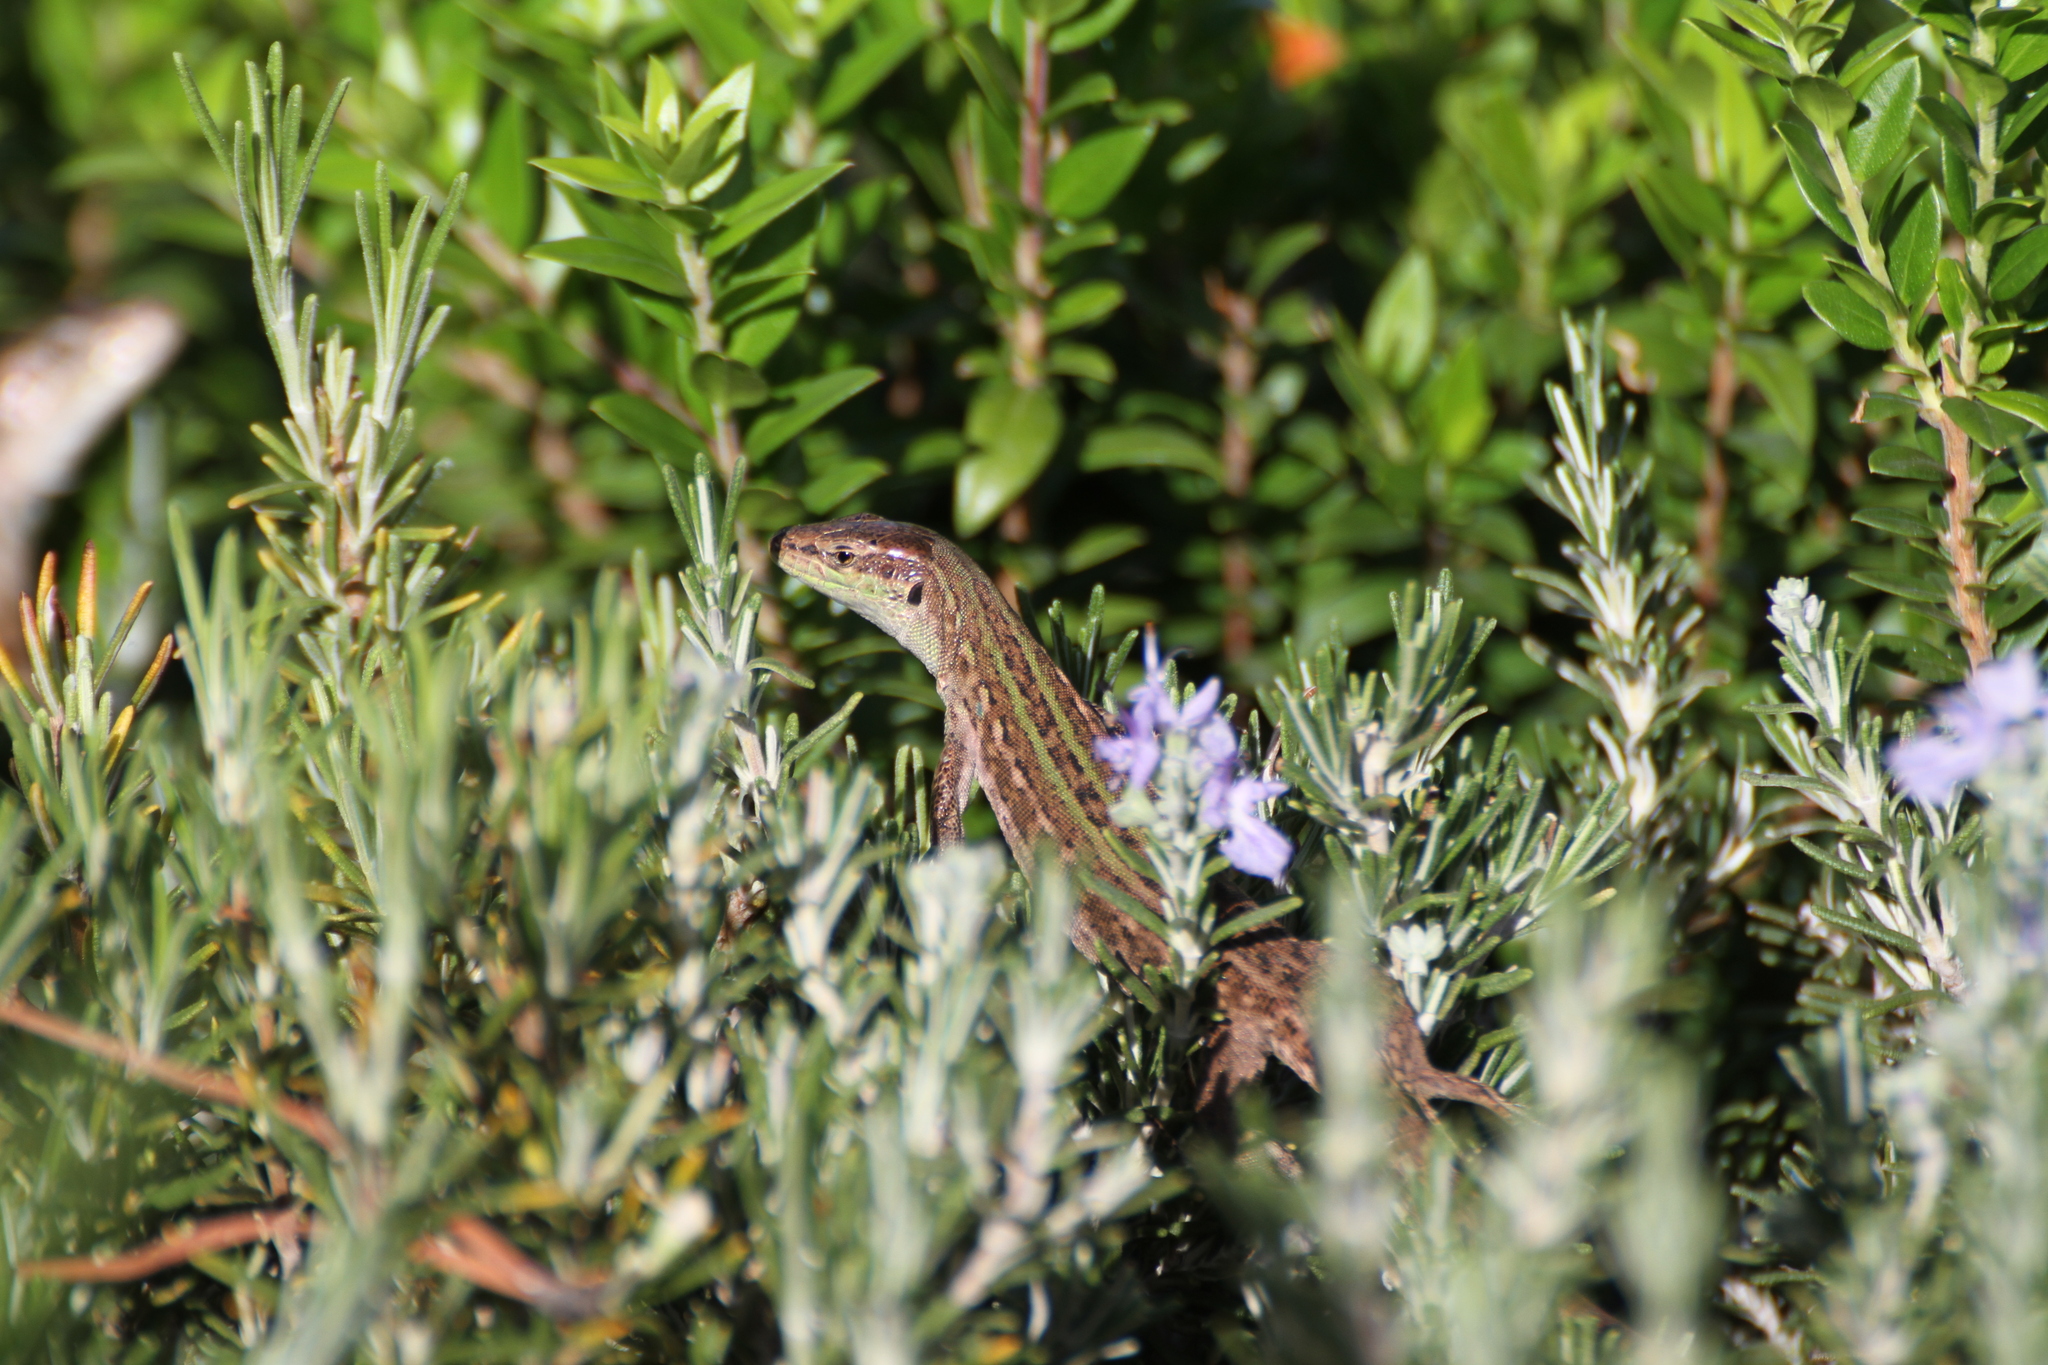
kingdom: Animalia
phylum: Chordata
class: Squamata
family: Lacertidae
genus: Podarcis
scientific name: Podarcis siculus
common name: Italian wall lizard
